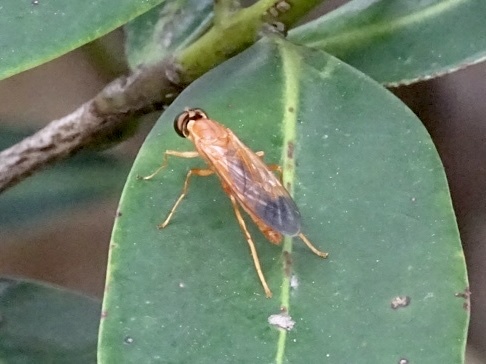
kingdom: Animalia
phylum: Arthropoda
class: Insecta
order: Diptera
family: Stratiomyidae
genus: Ptecticus
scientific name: Ptecticus aurifer
